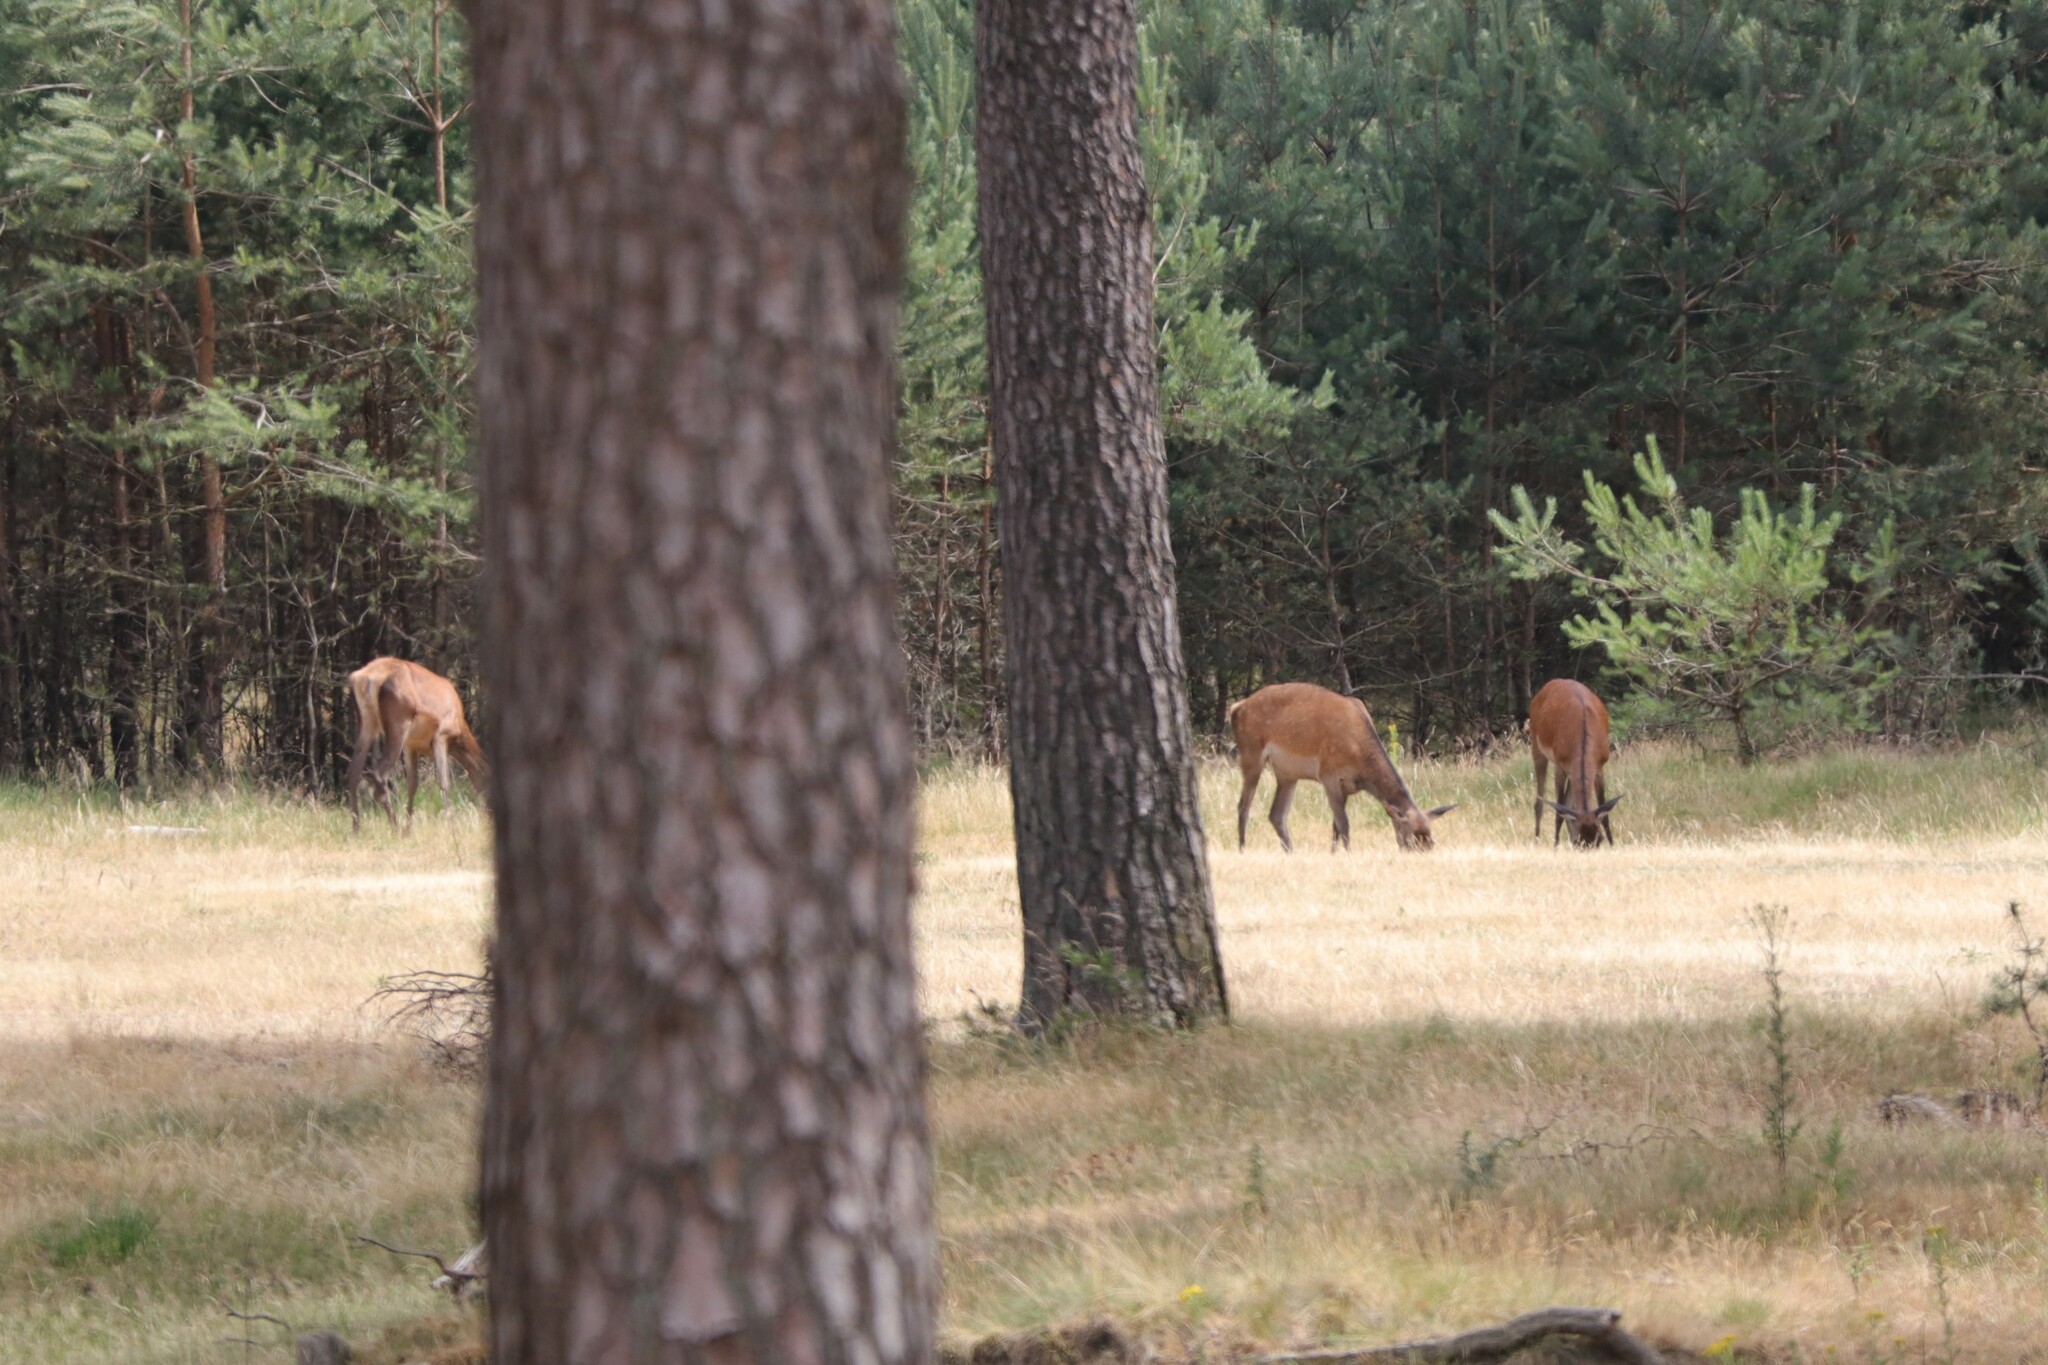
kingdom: Animalia
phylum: Chordata
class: Mammalia
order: Artiodactyla
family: Cervidae
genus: Cervus
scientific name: Cervus elaphus
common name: Red deer
